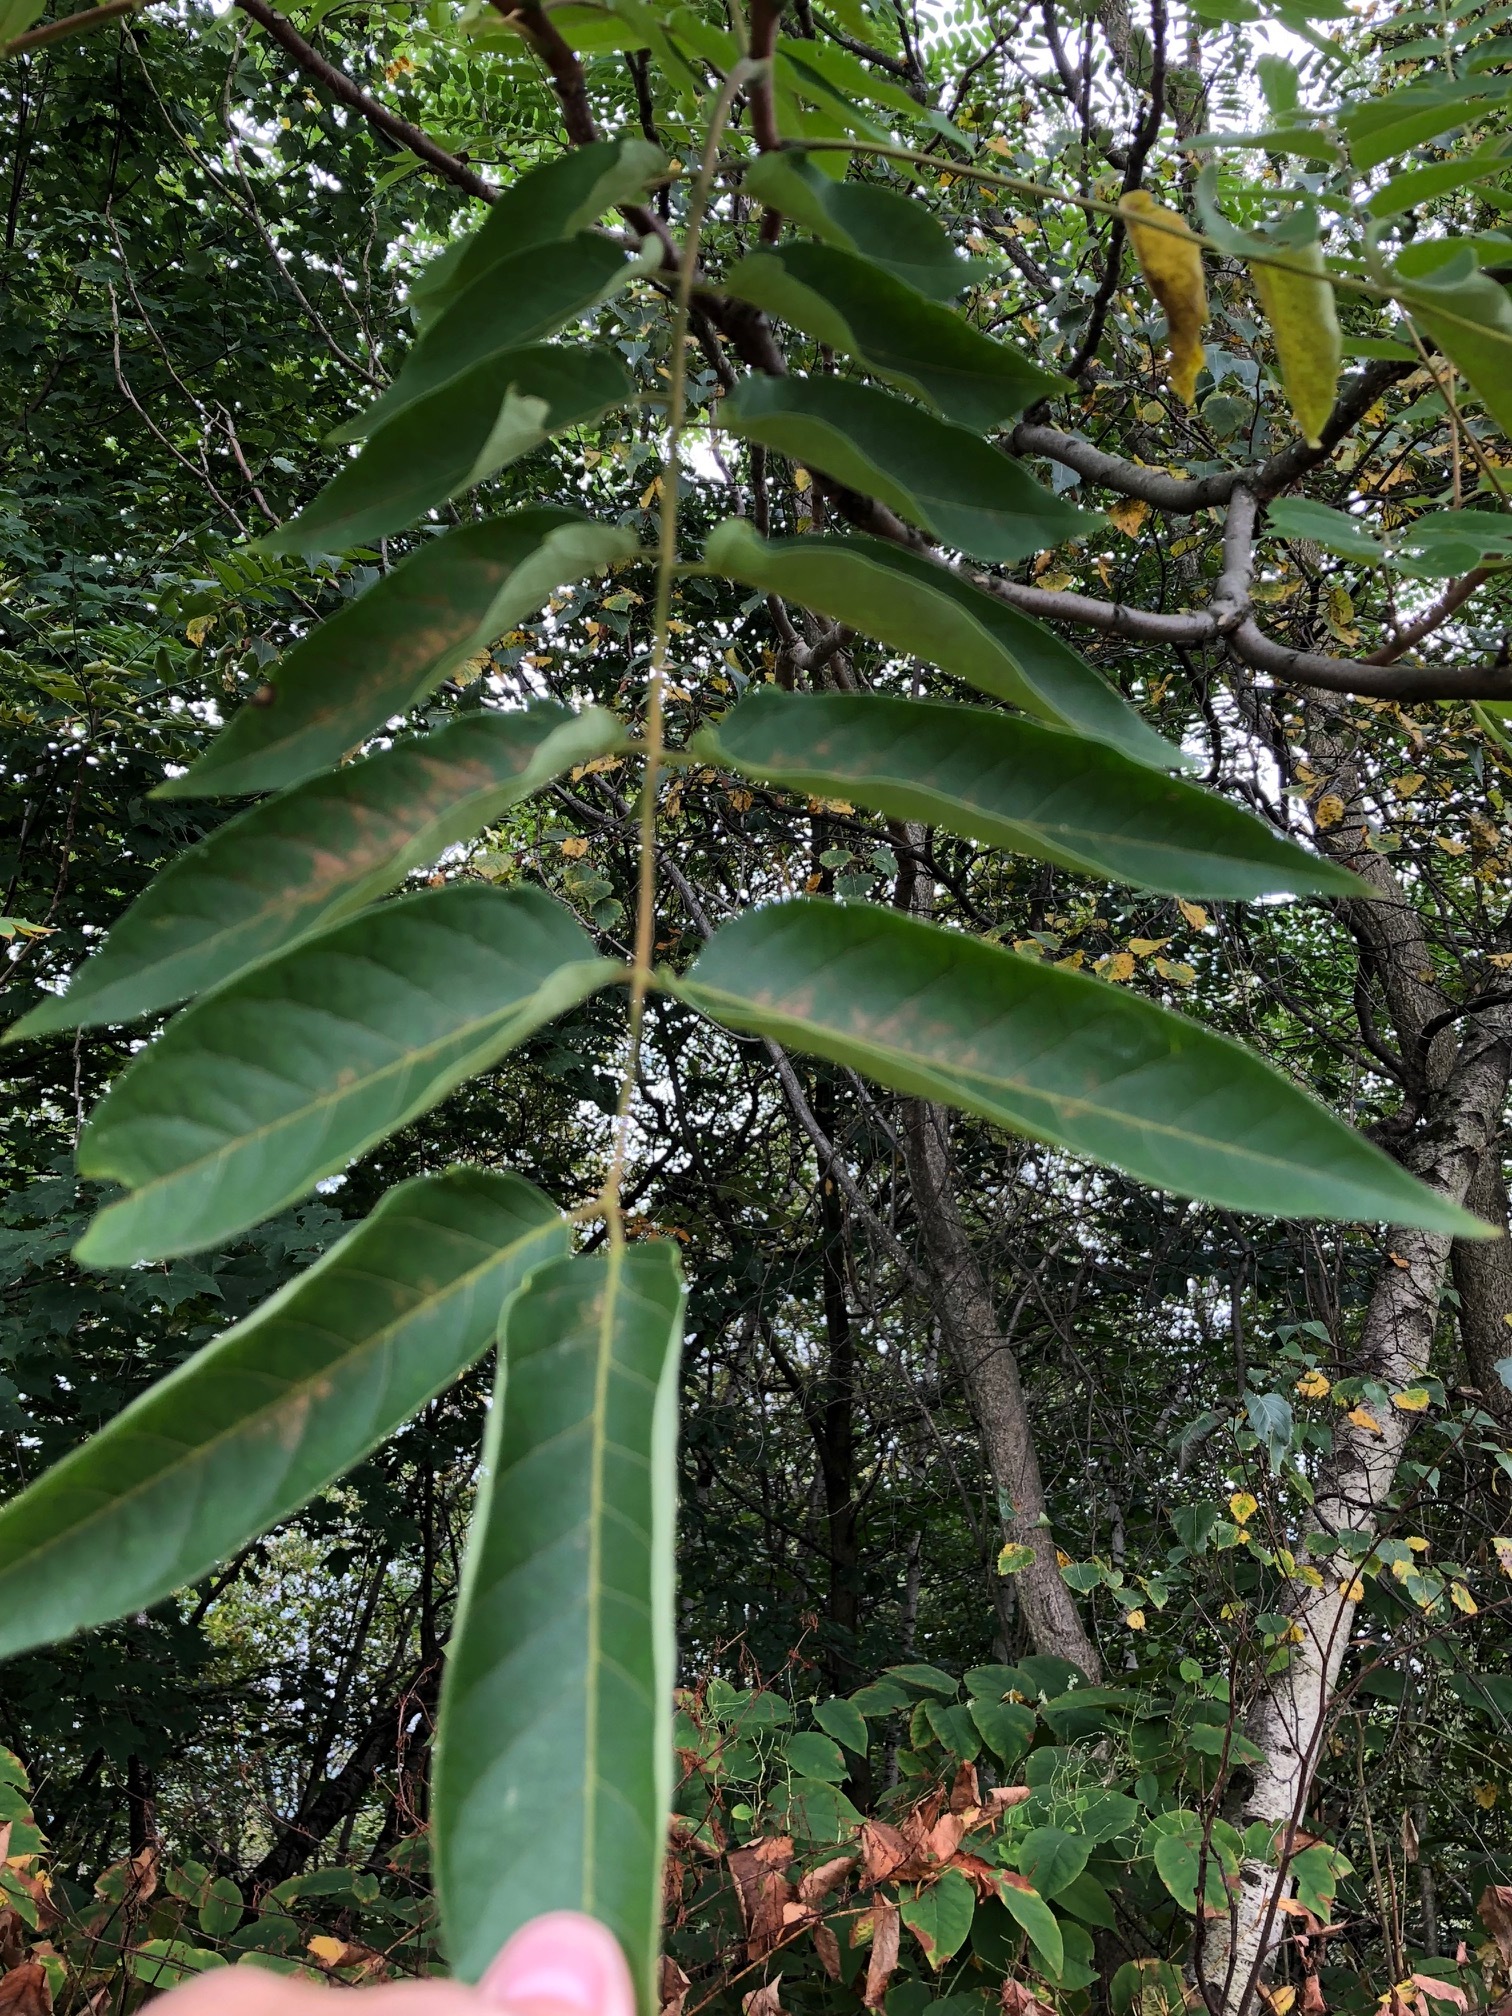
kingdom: Plantae
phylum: Tracheophyta
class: Magnoliopsida
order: Sapindales
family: Simaroubaceae
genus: Ailanthus
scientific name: Ailanthus altissima
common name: Tree-of-heaven
